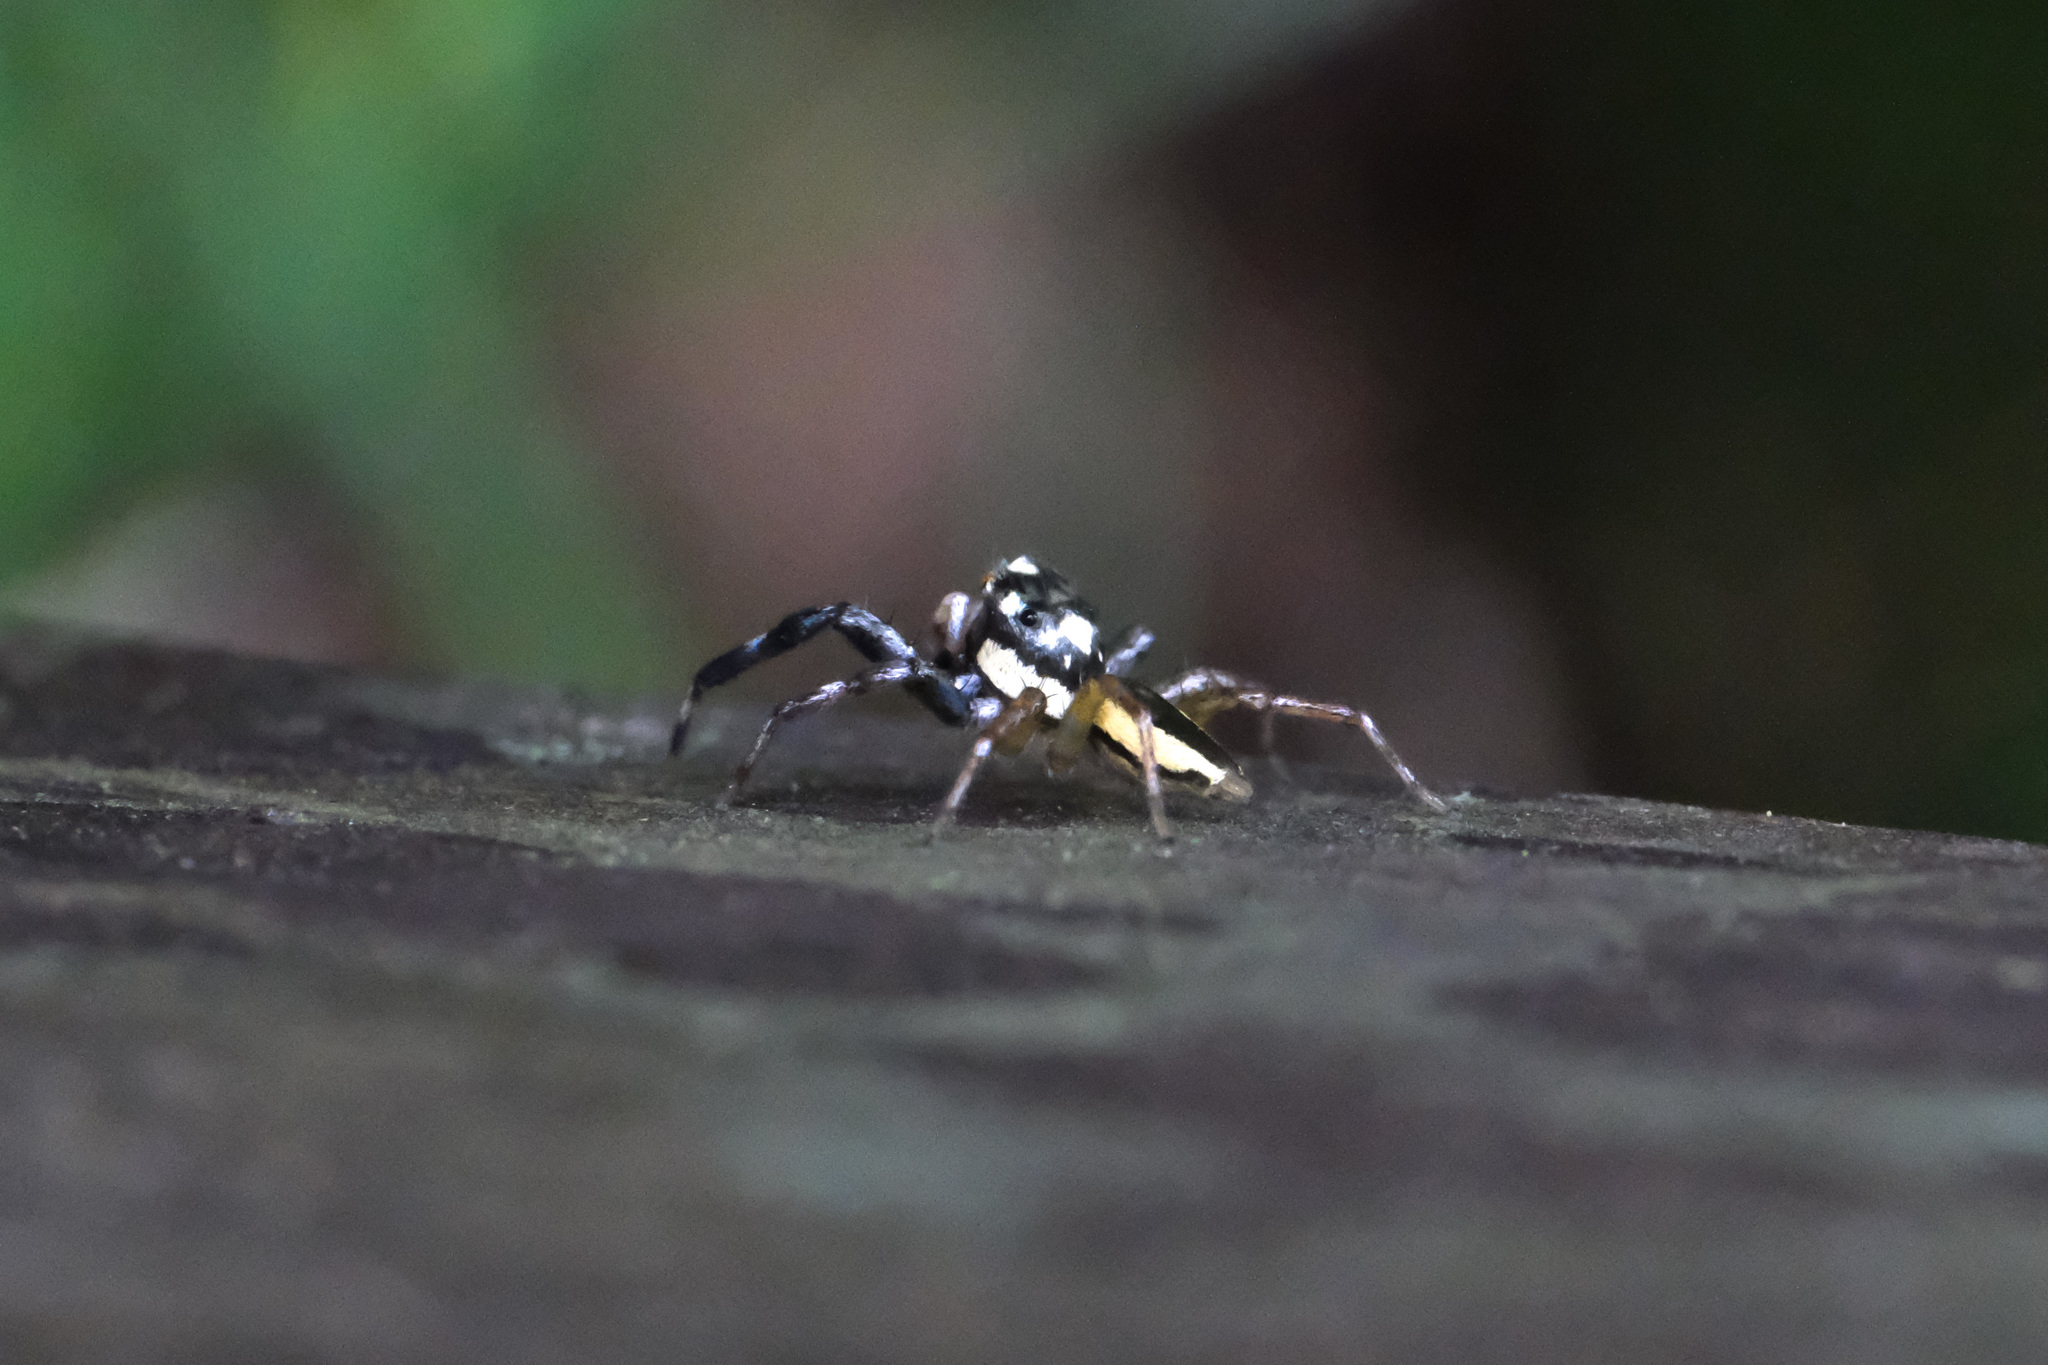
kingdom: Animalia
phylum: Arthropoda
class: Arachnida
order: Araneae
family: Salticidae
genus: Phintelloides
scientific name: Phintelloides versicolor
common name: Jumping spider
